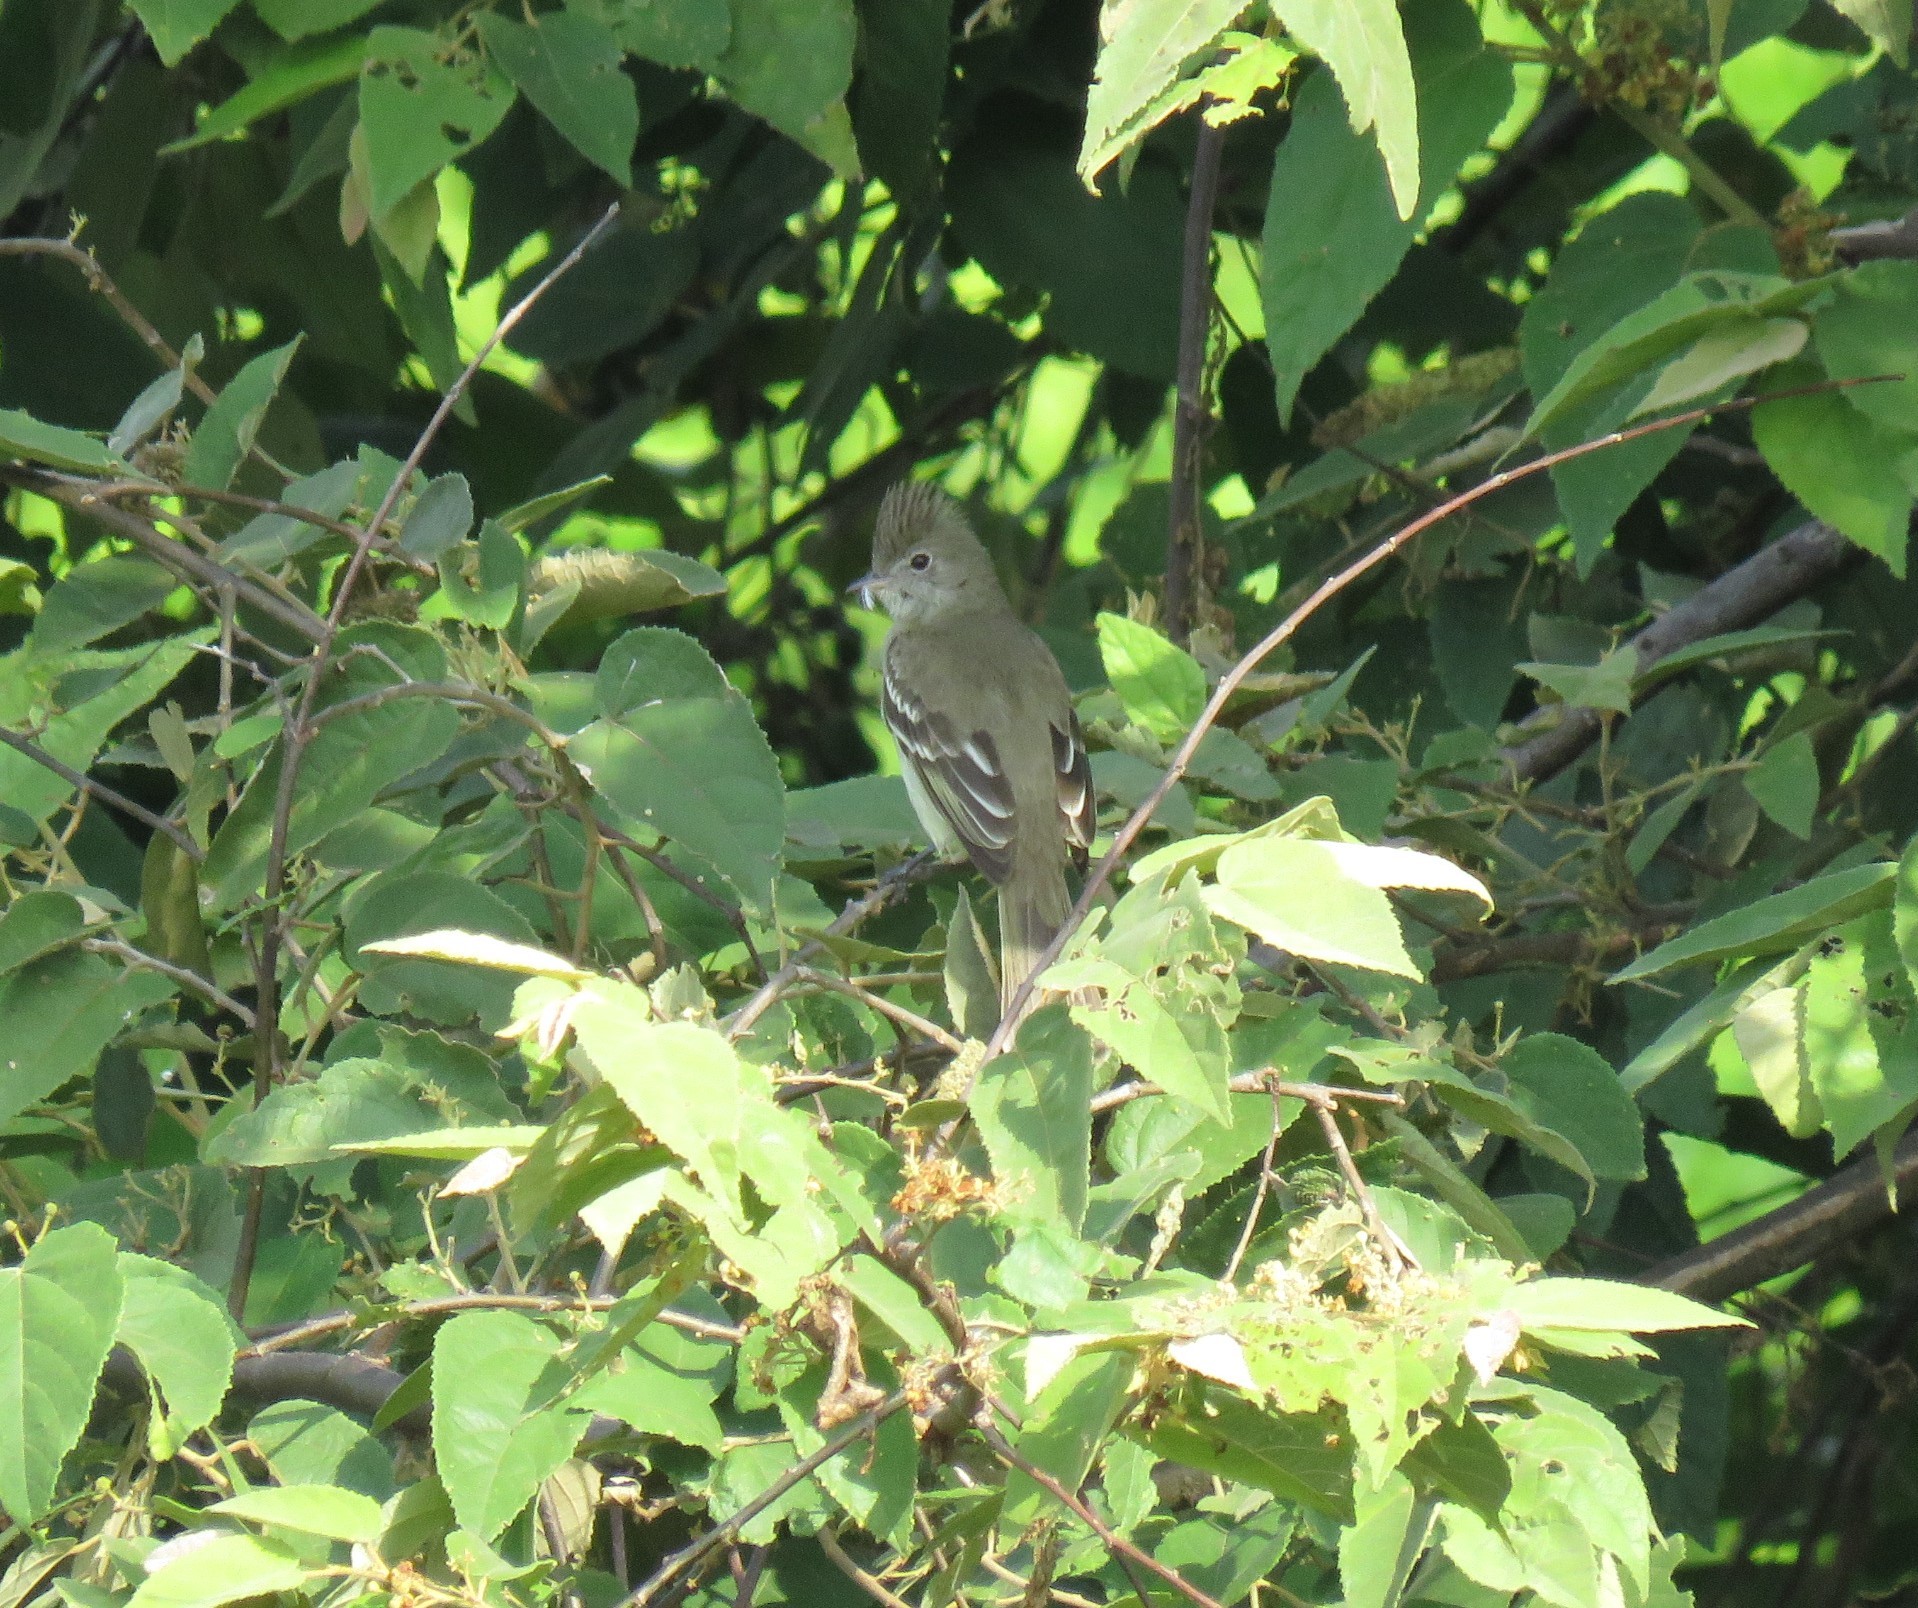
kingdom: Animalia
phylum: Chordata
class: Aves
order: Passeriformes
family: Tyrannidae
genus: Elaenia
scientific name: Elaenia flavogaster
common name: Yellow-bellied elaenia
